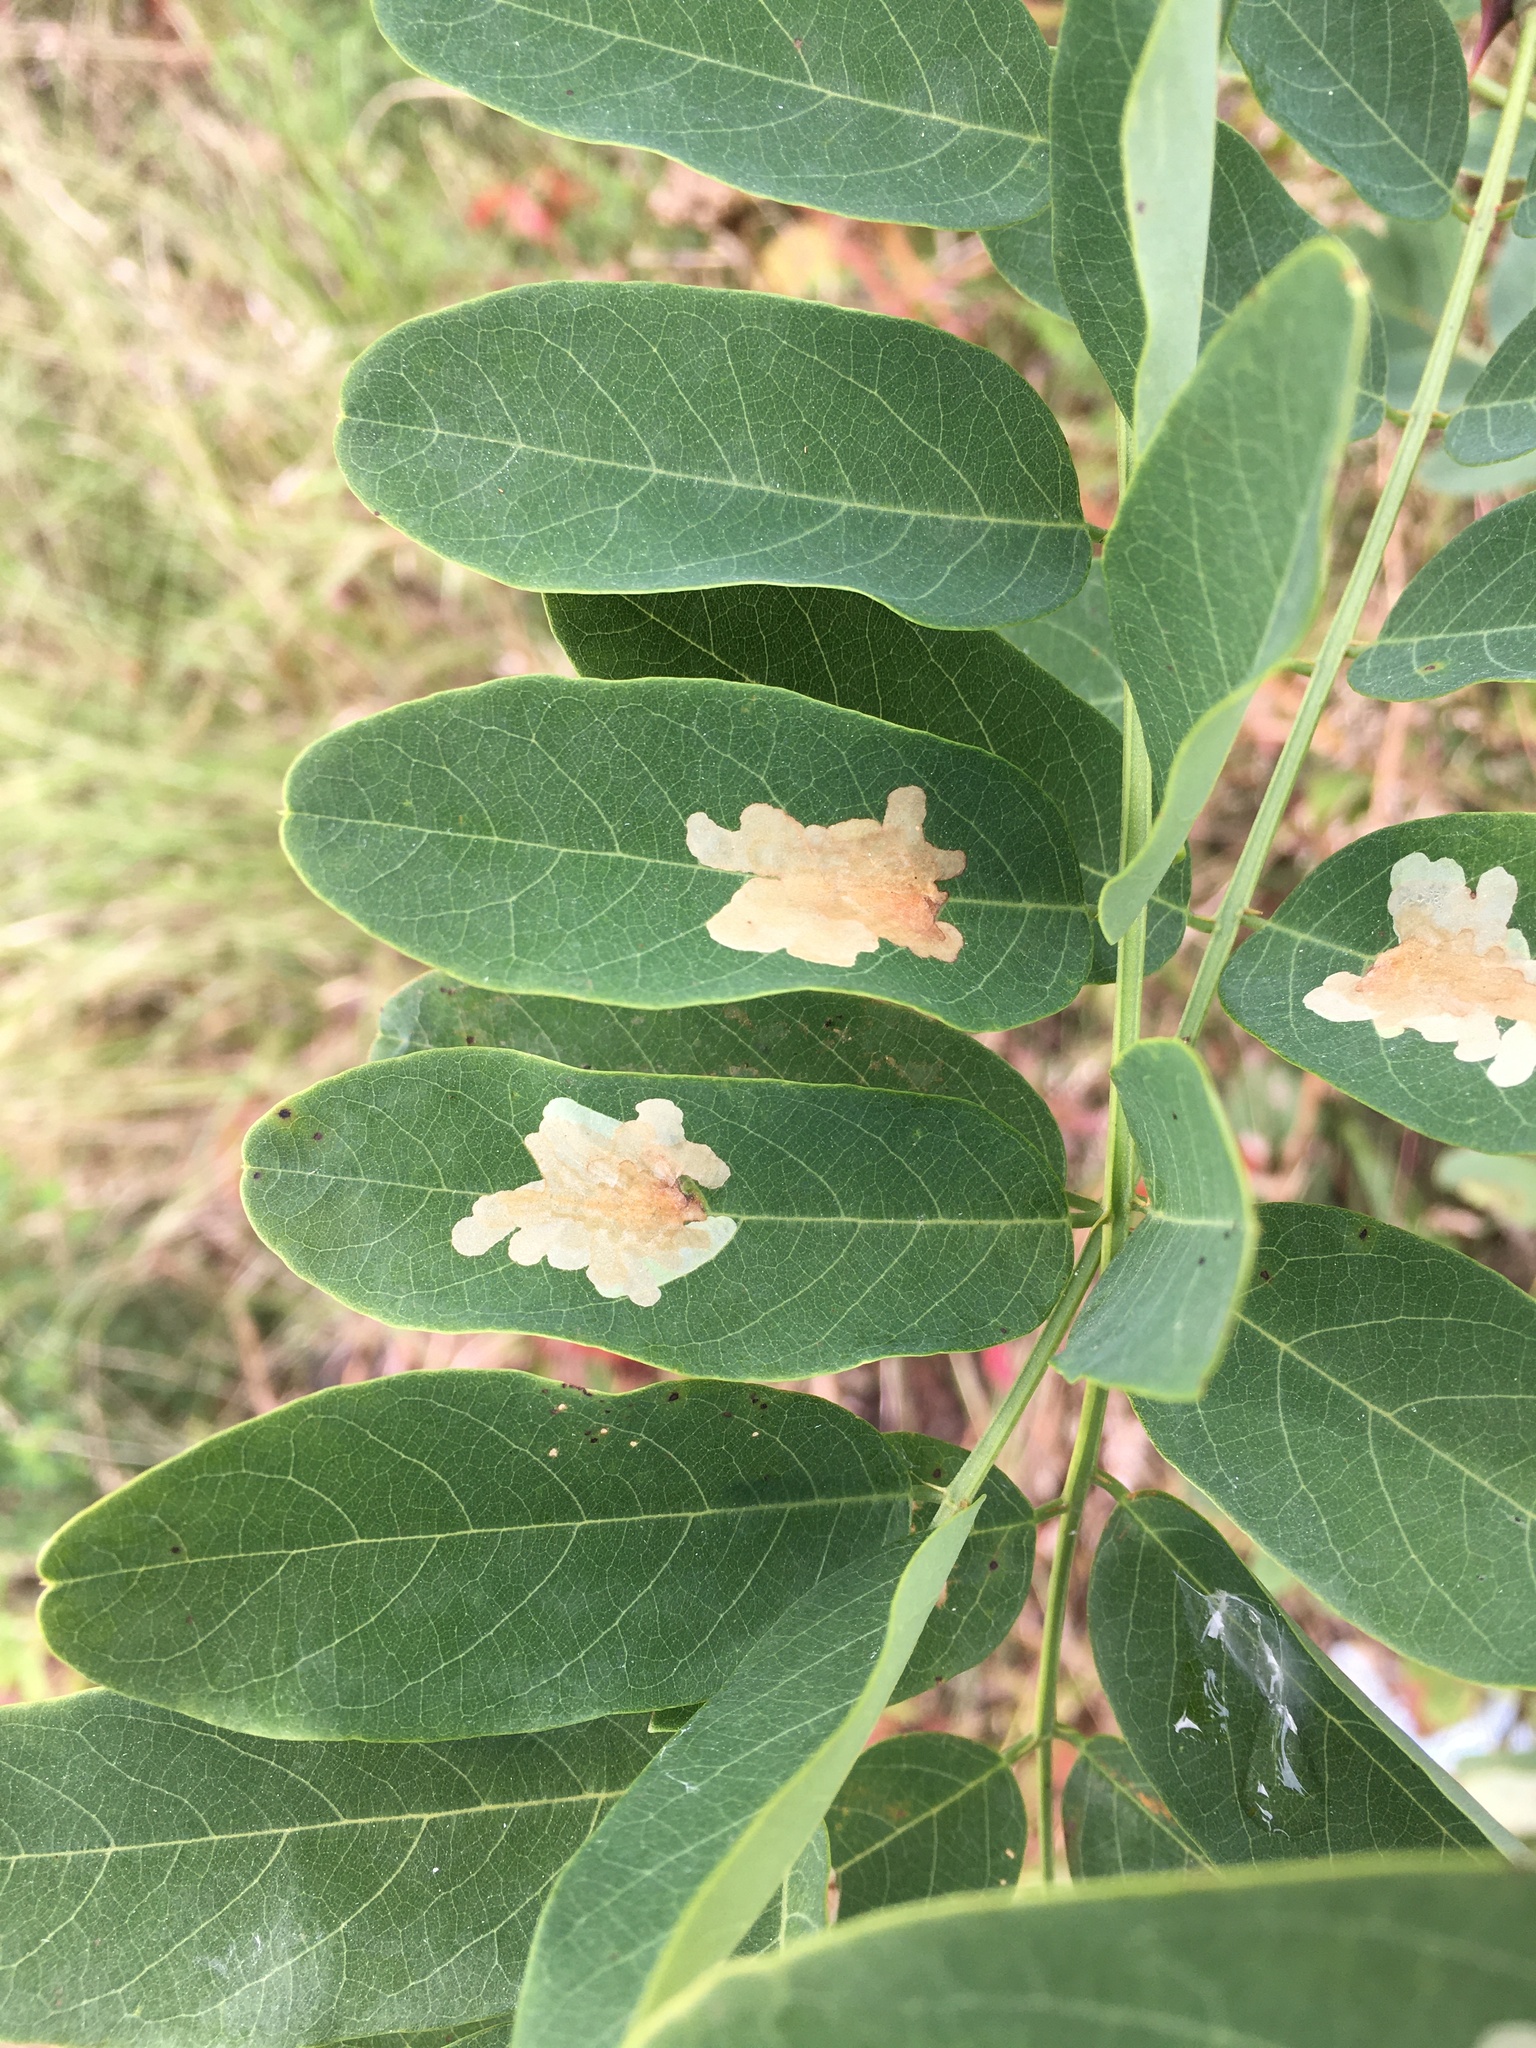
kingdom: Animalia
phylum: Arthropoda
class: Insecta
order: Lepidoptera
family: Gracillariidae
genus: Parectopa
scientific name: Parectopa robiniella
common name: Locust digitate leafminer
